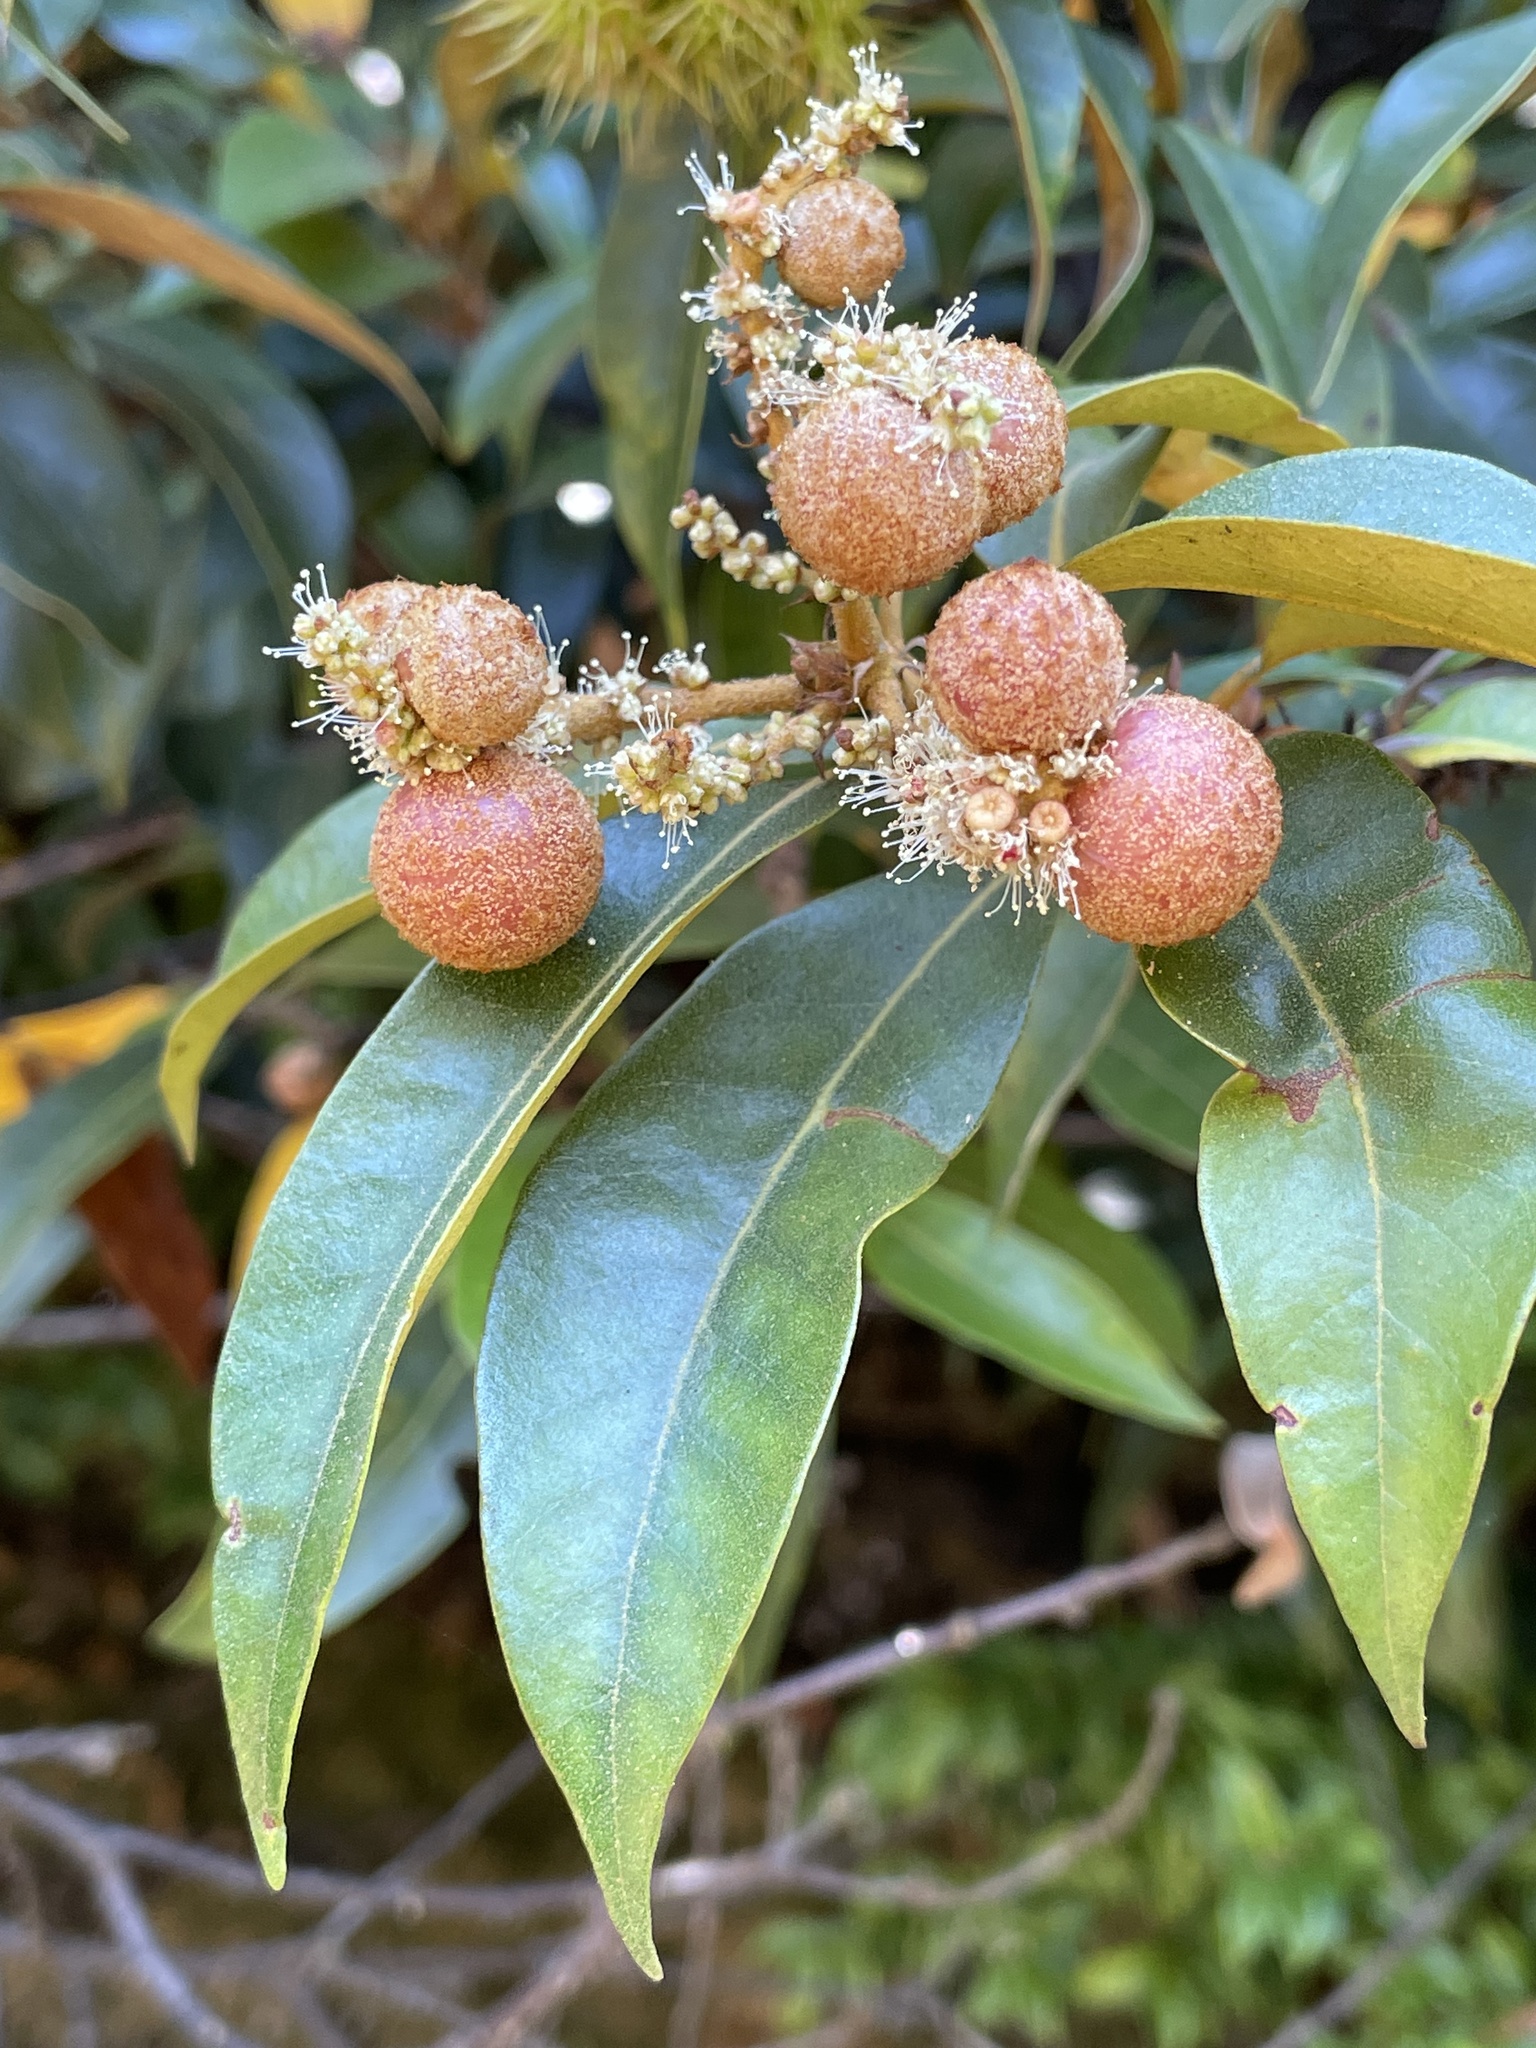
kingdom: Animalia
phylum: Arthropoda
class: Insecta
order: Hymenoptera
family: Cynipidae
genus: Synergus
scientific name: Synergus castanopsidis
